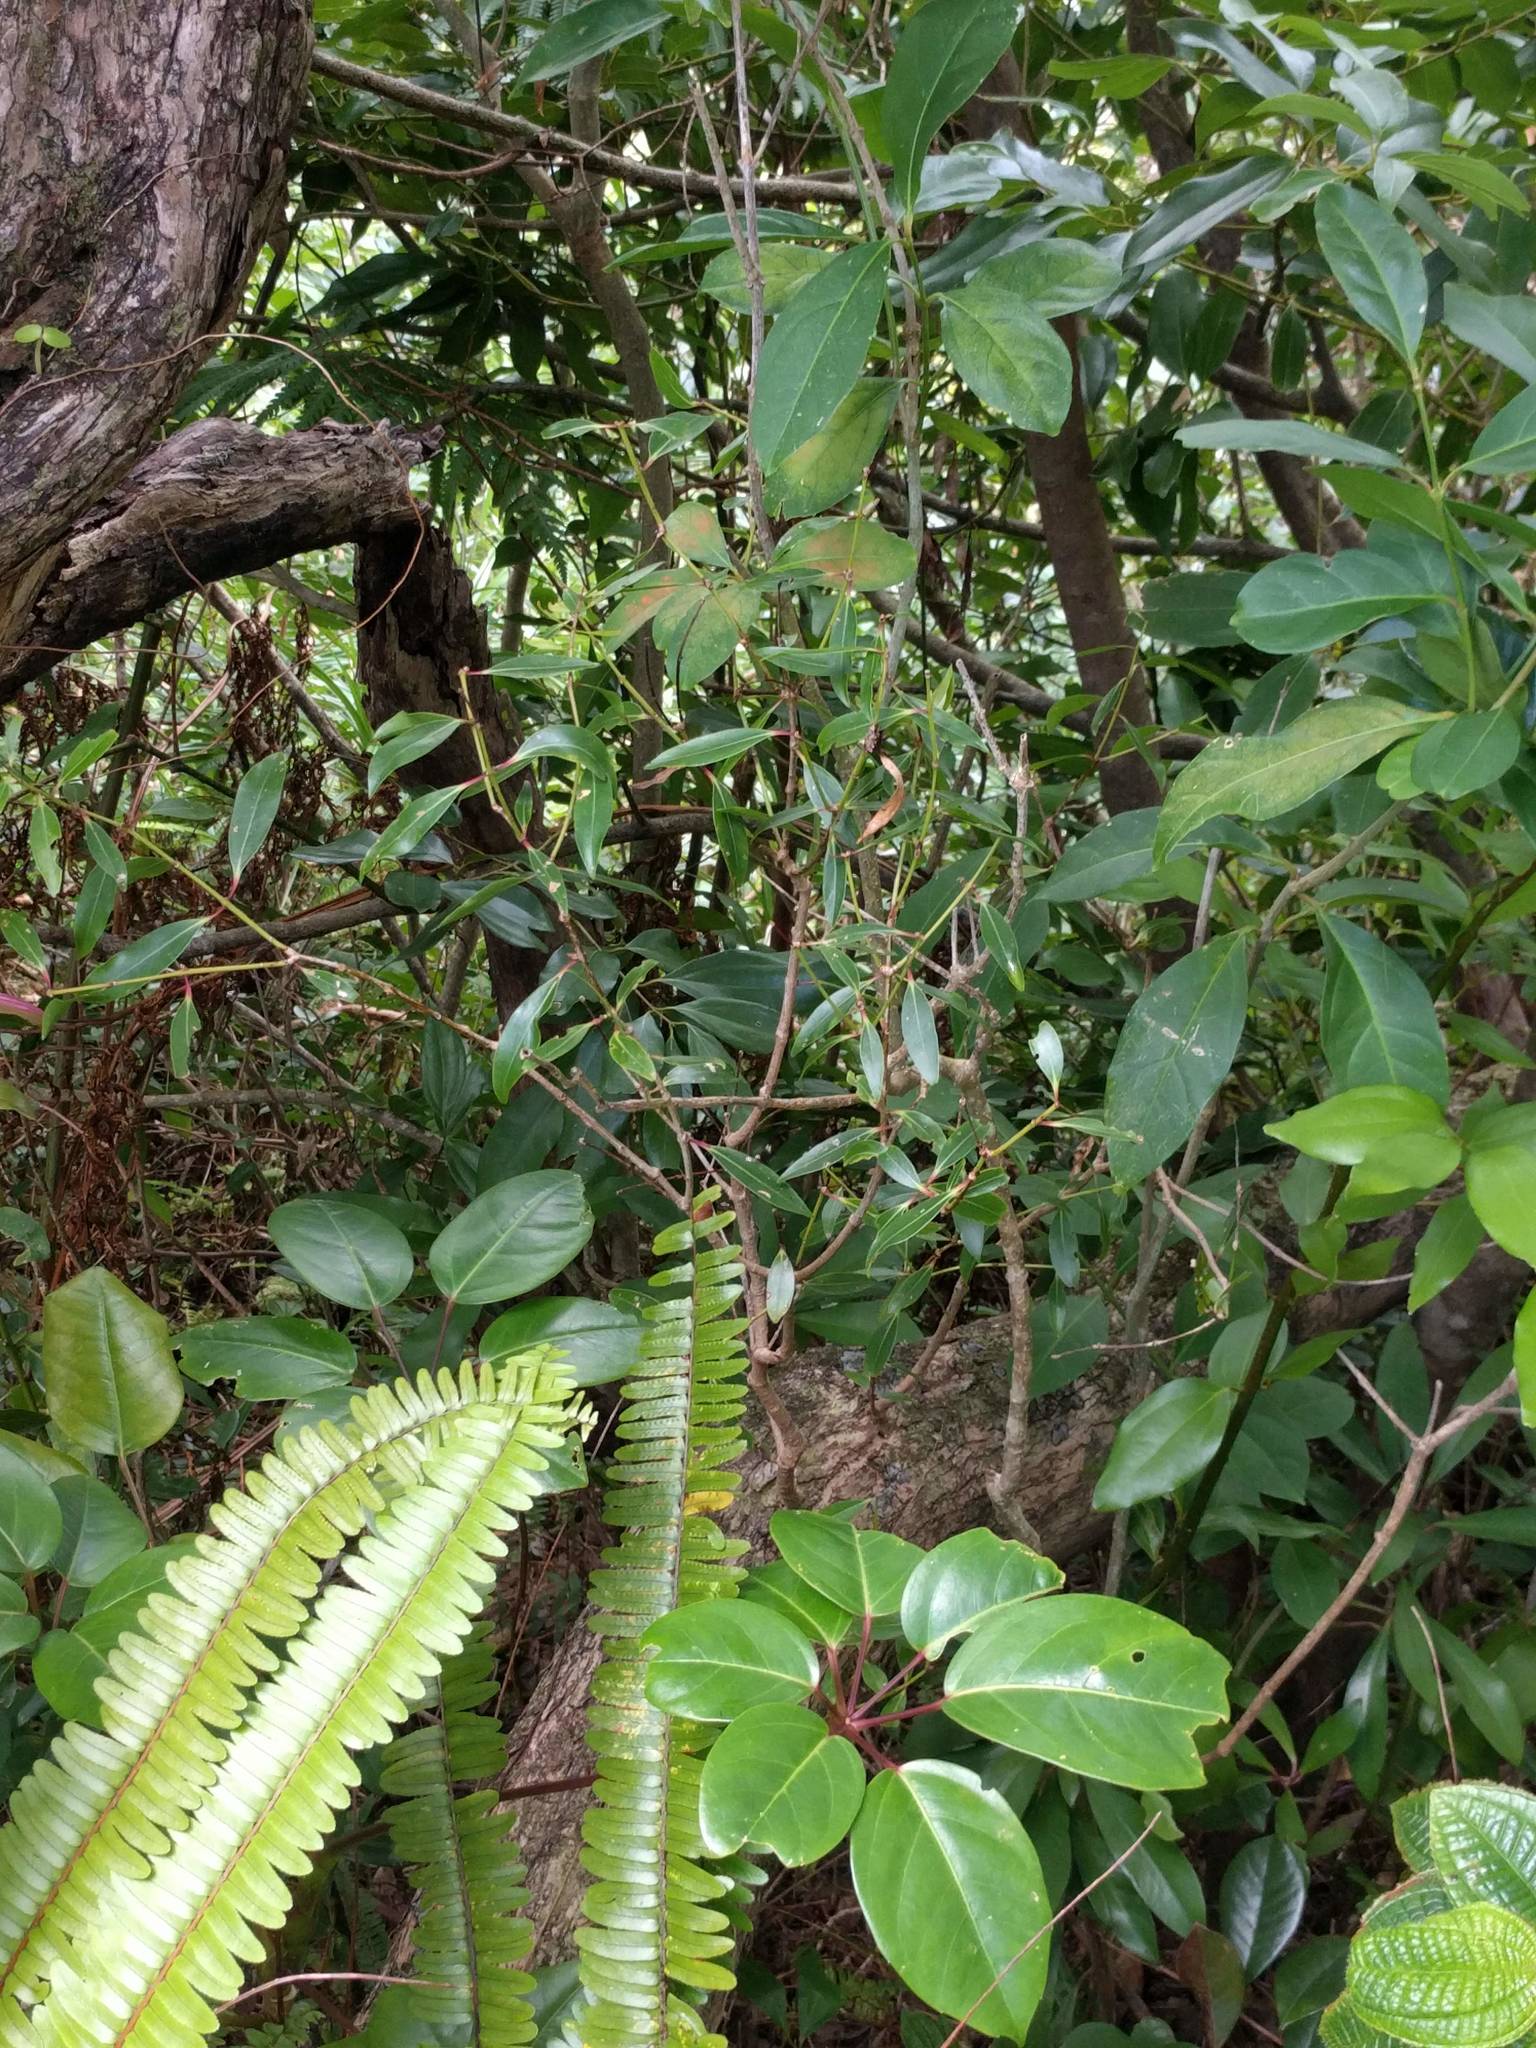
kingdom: Plantae
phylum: Tracheophyta
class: Magnoliopsida
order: Myrtales
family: Myrtaceae
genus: Metrosideros
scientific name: Metrosideros tremuloides
